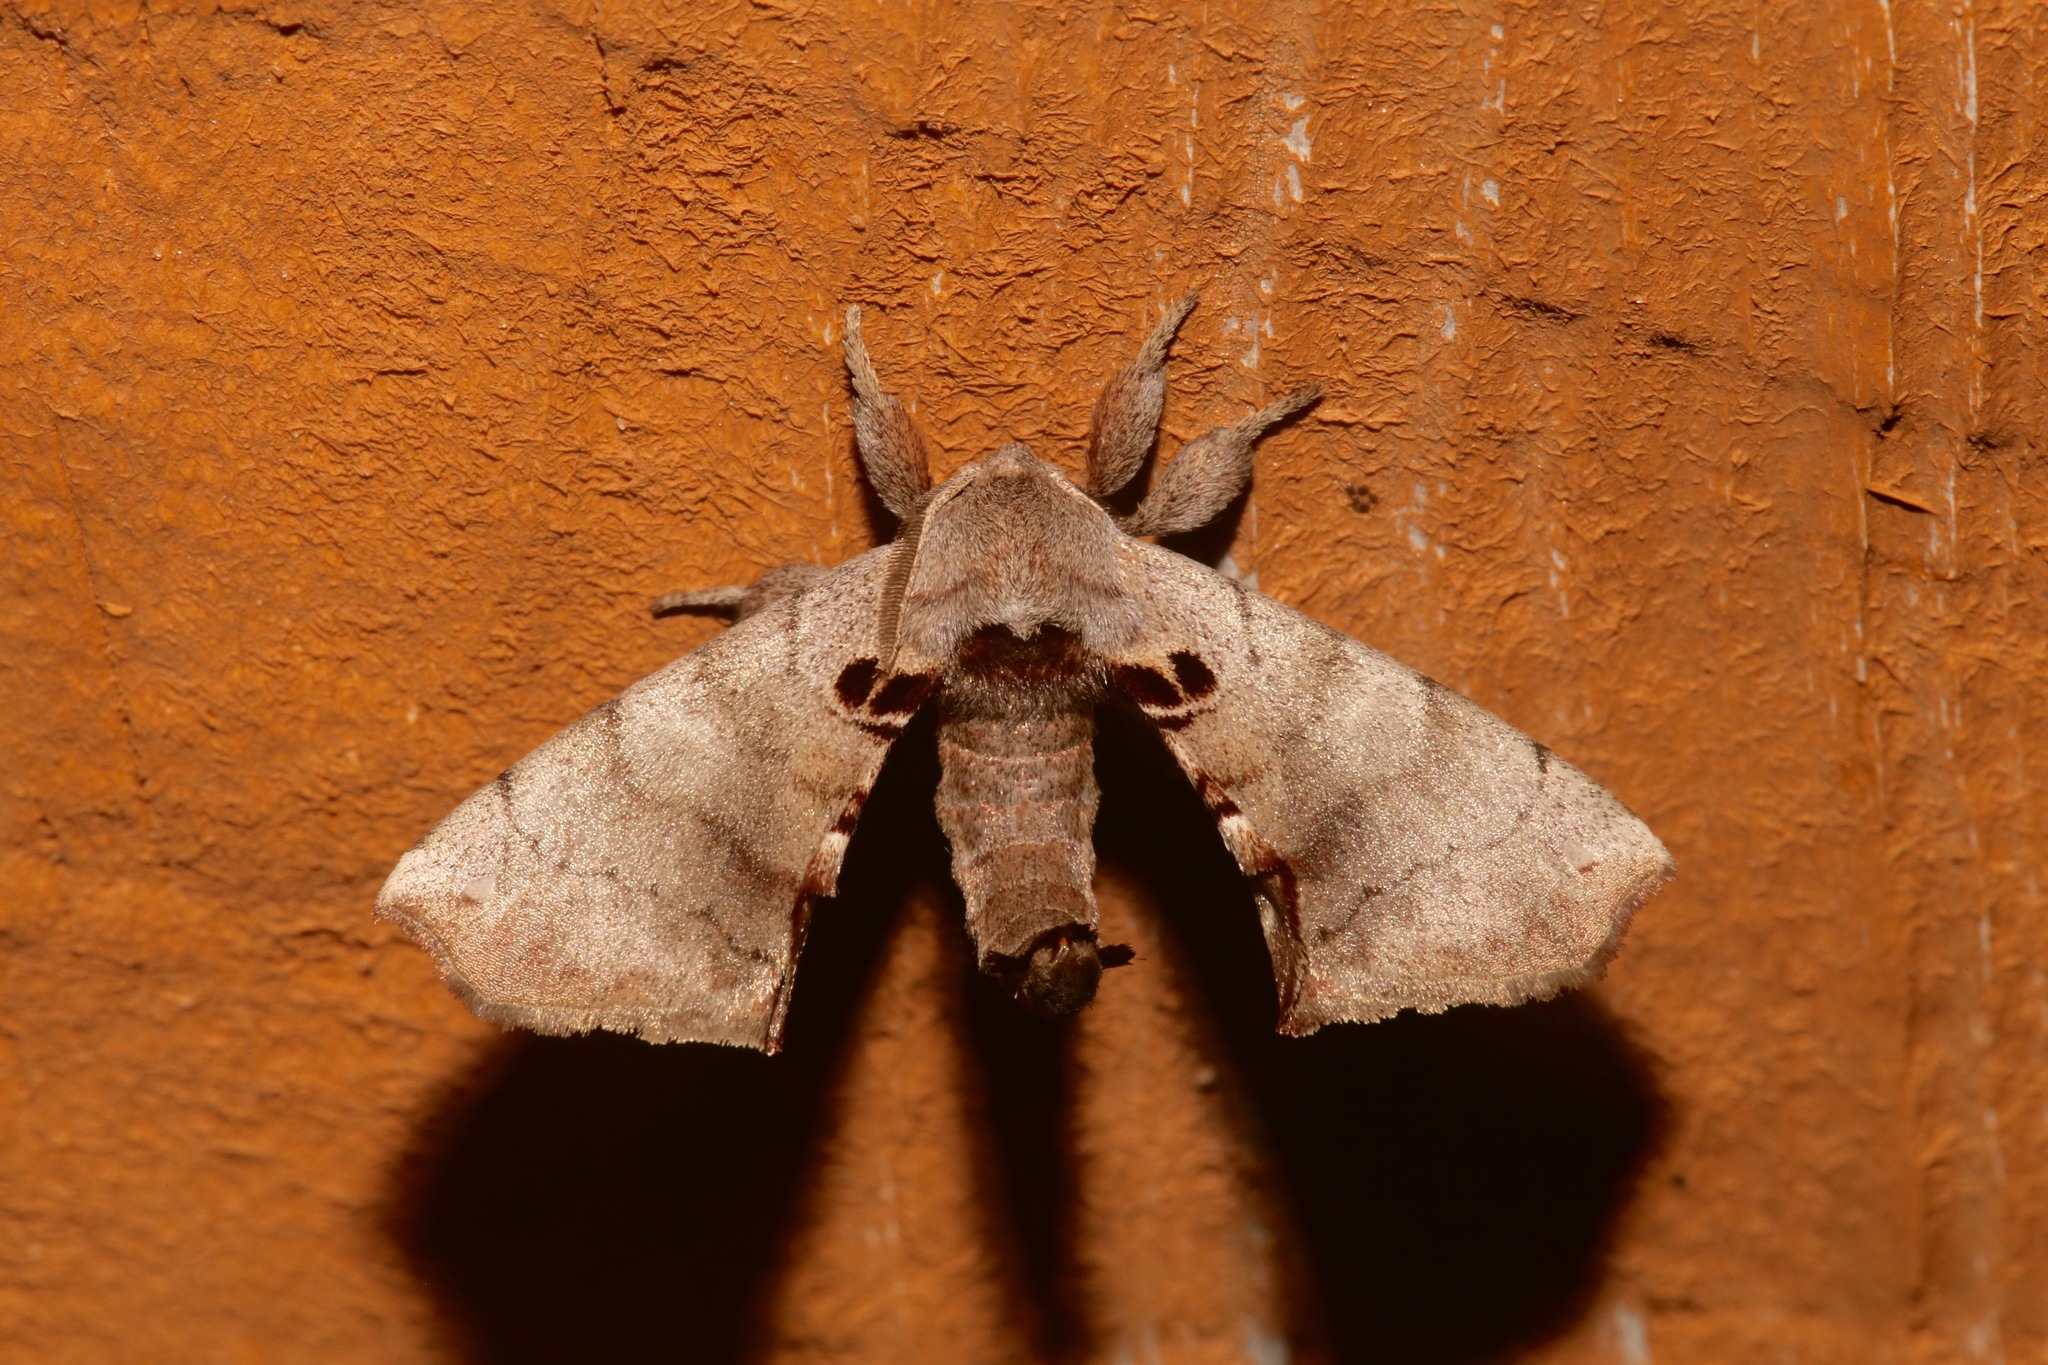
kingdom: Animalia
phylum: Arthropoda
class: Insecta
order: Lepidoptera
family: Apatelodidae
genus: Hygrochroa
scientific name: Hygrochroa Apatelodes torrefacta
